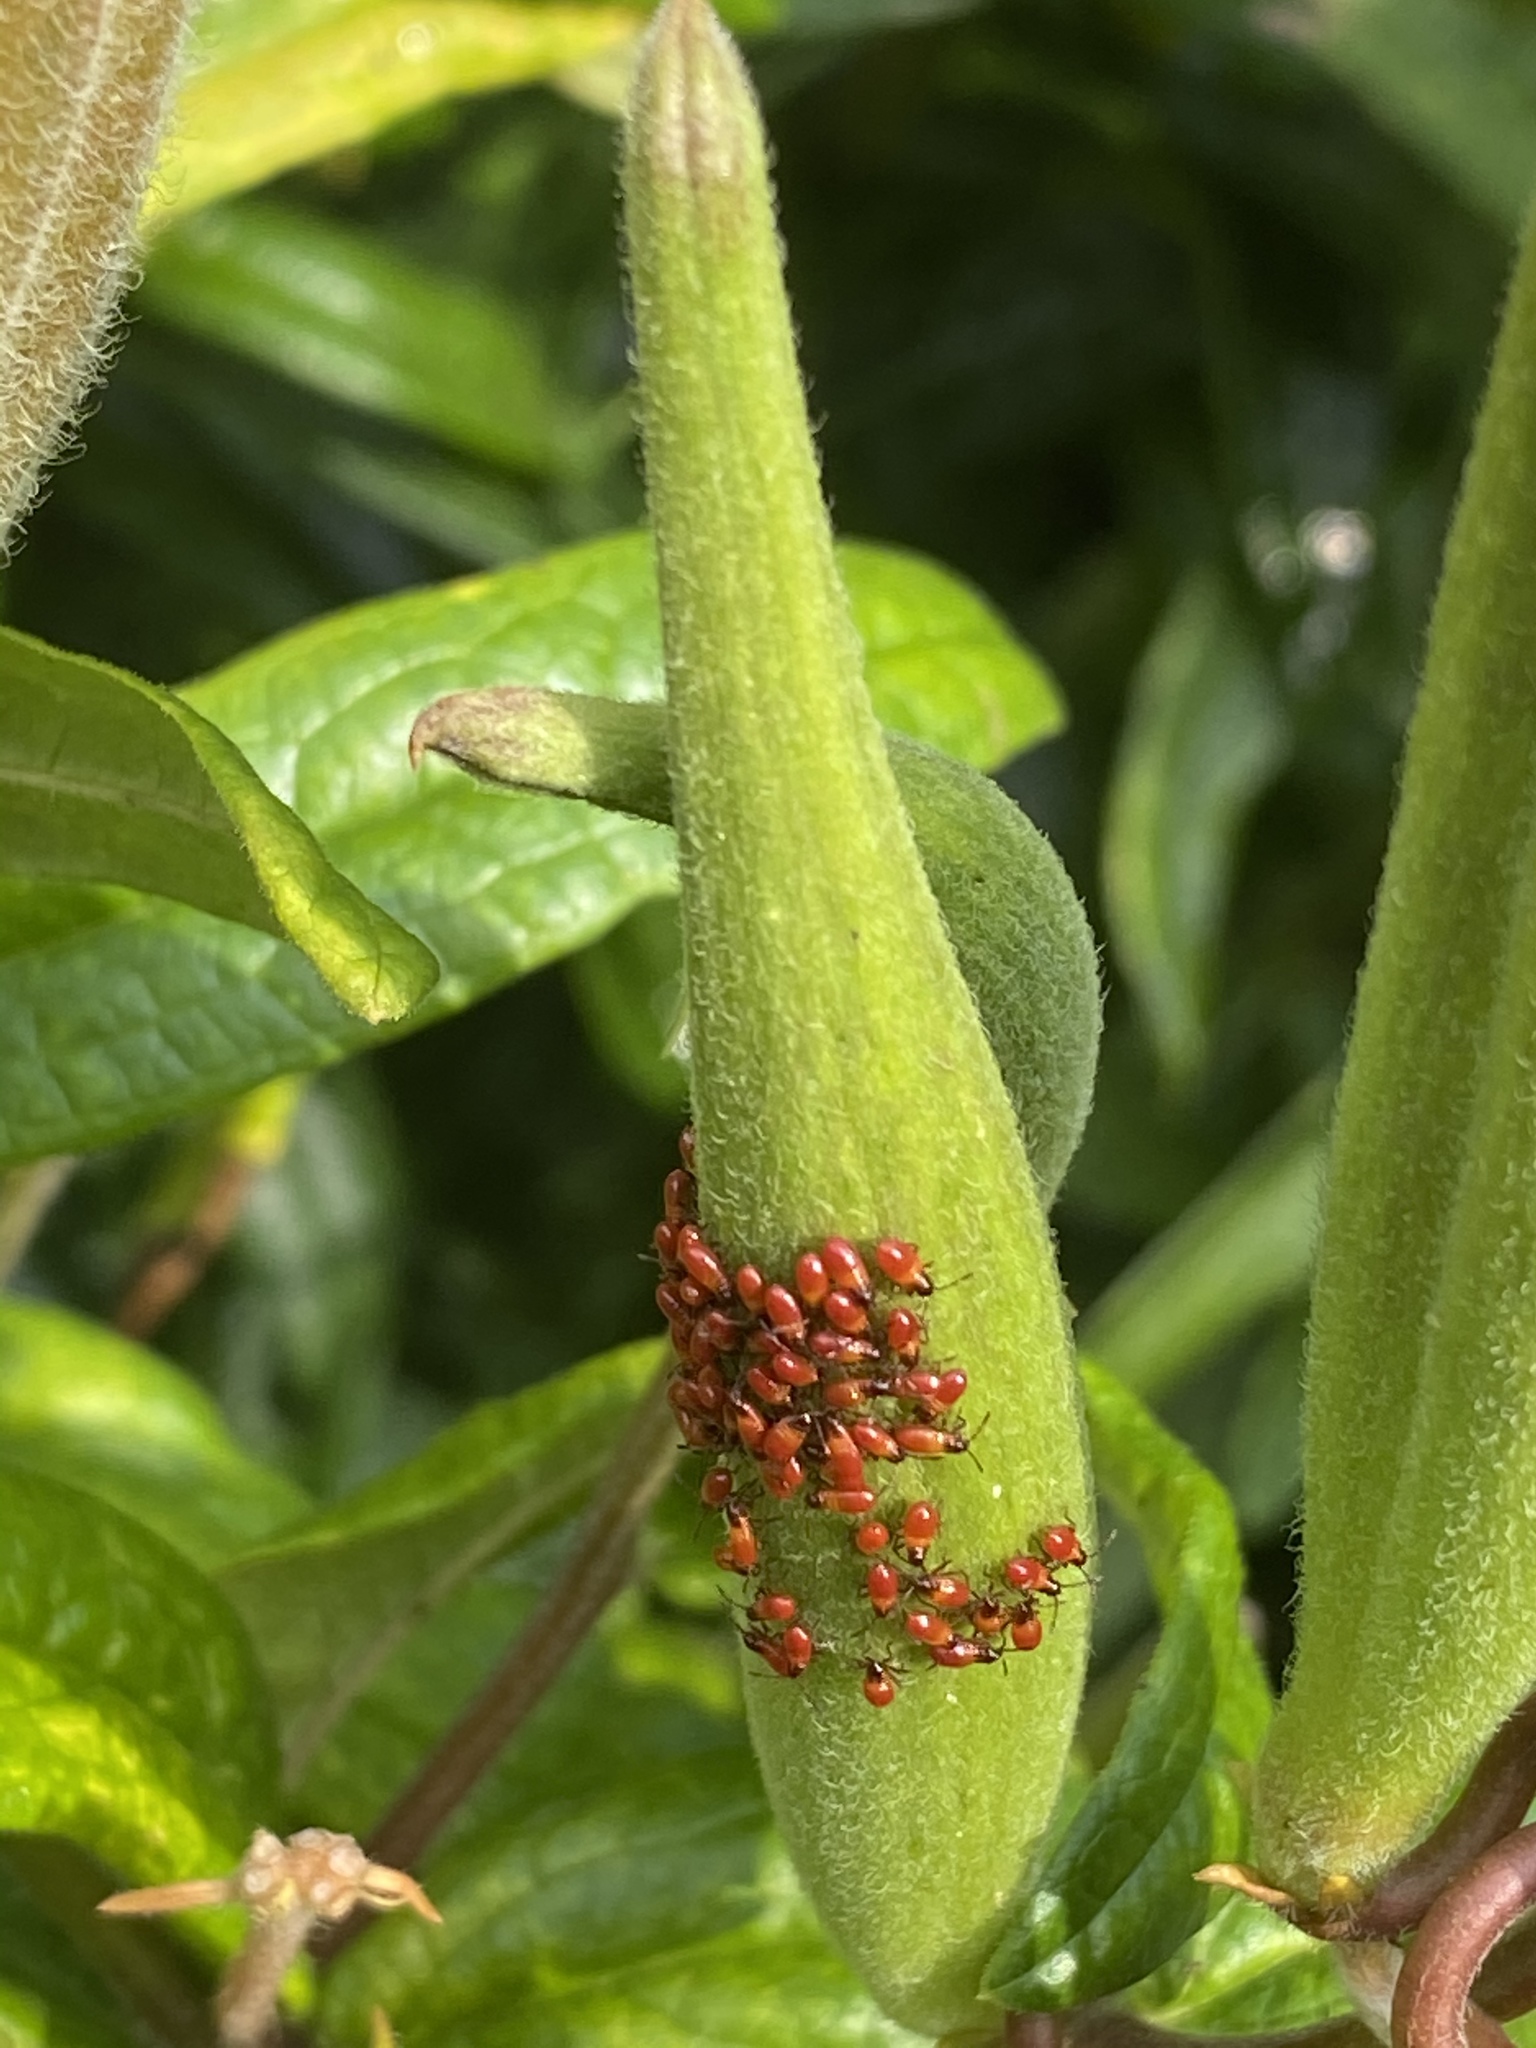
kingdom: Animalia
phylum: Arthropoda
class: Insecta
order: Hemiptera
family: Lygaeidae
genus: Oncopeltus
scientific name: Oncopeltus fasciatus
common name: Large milkweed bug
